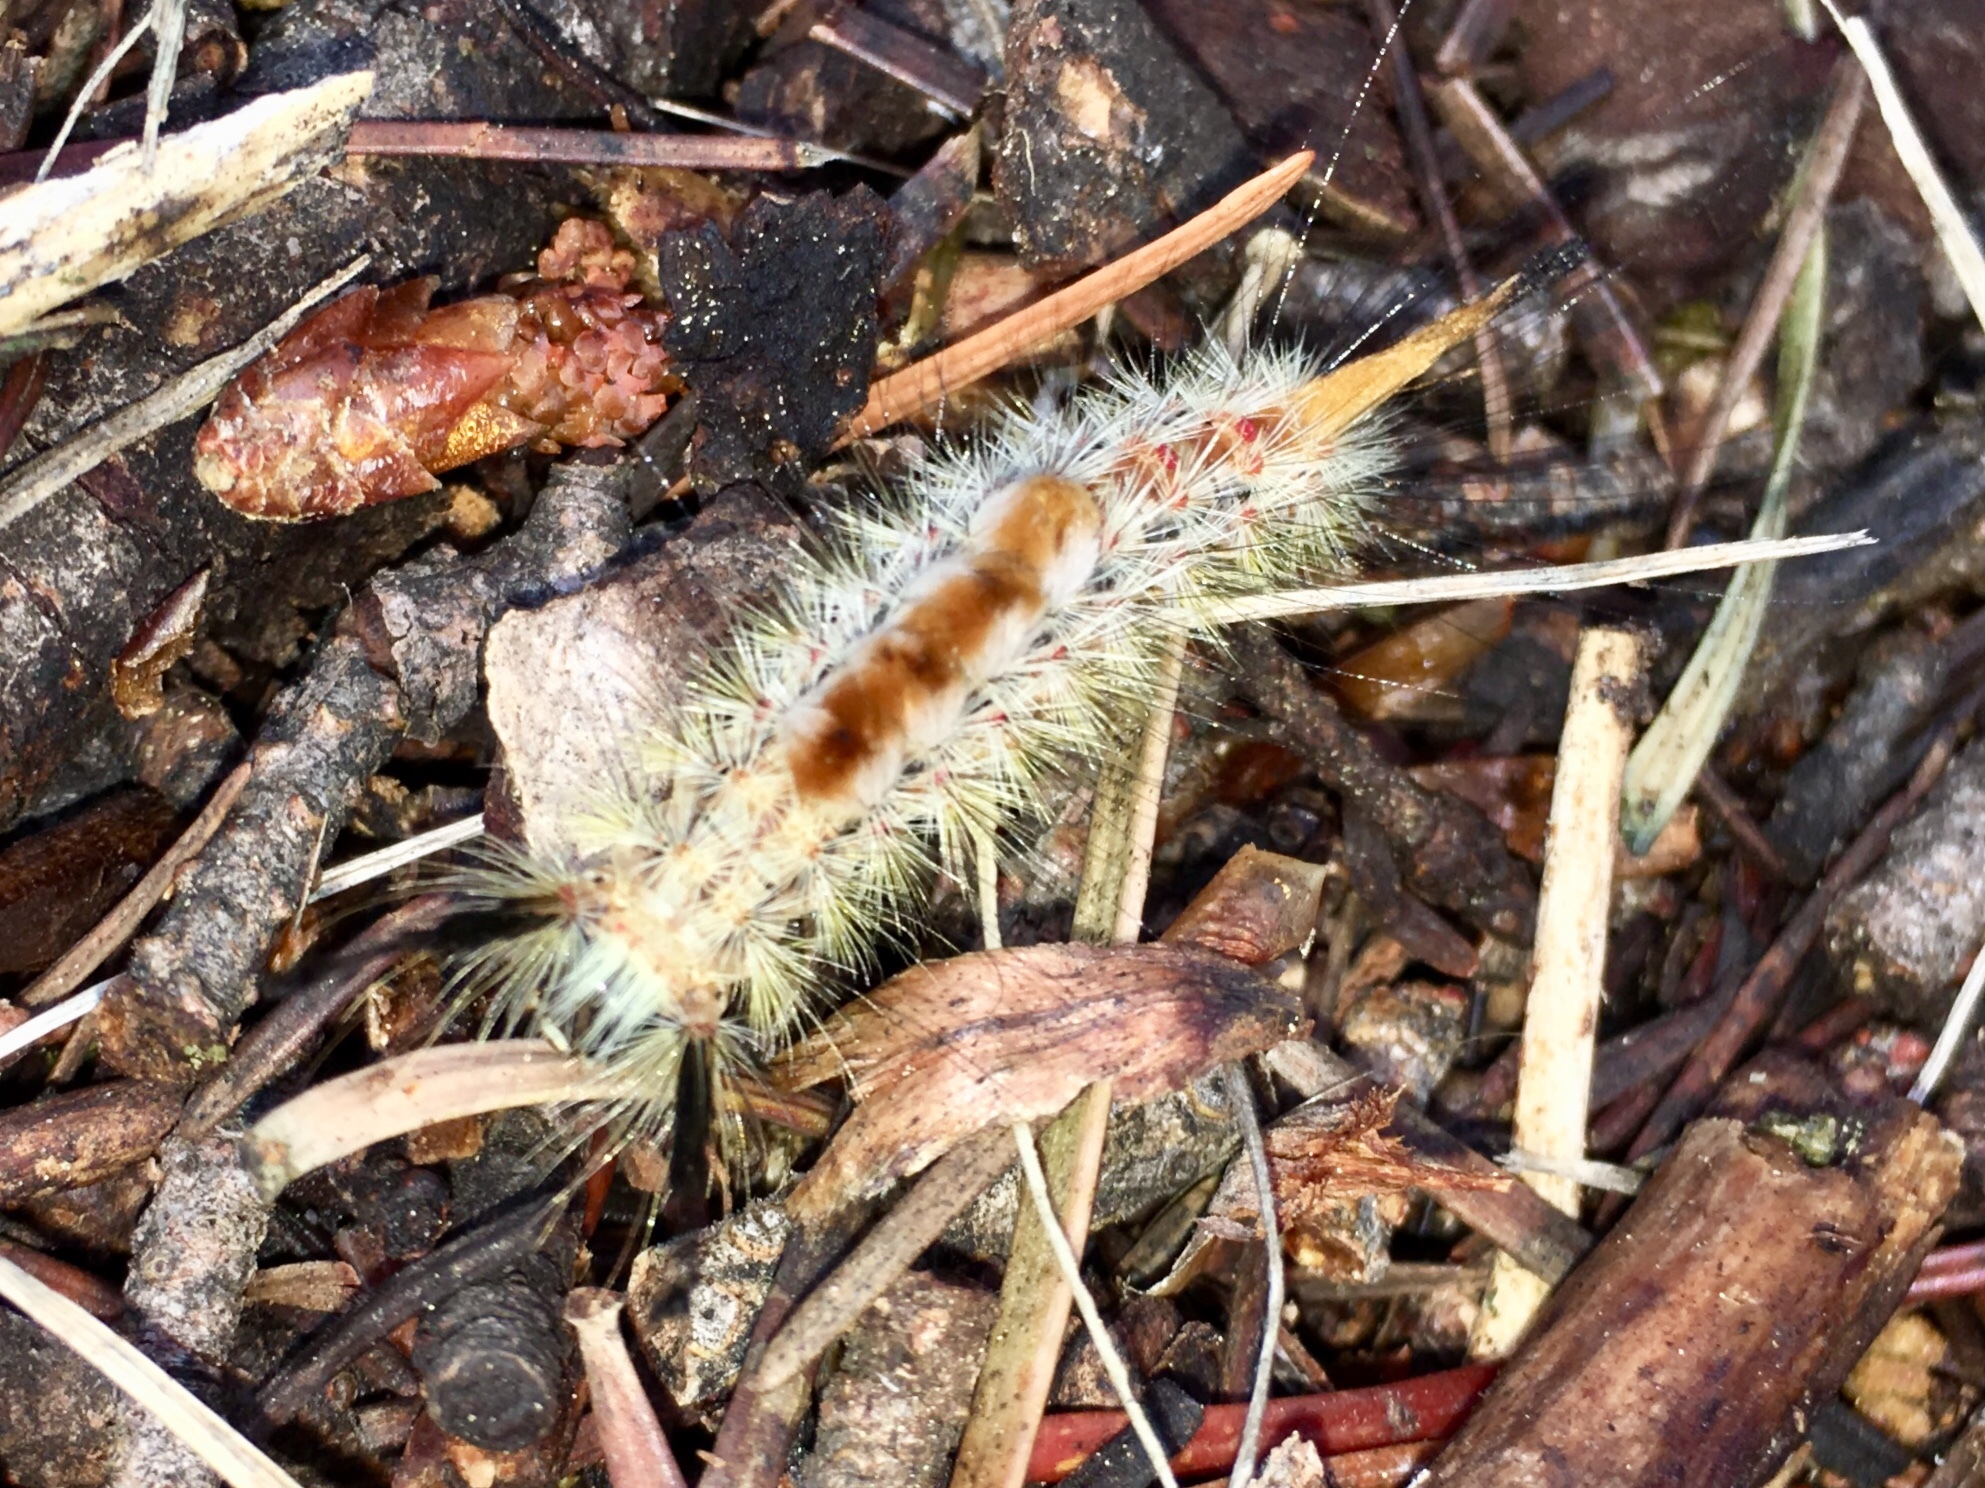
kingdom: Animalia
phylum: Arthropoda
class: Insecta
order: Lepidoptera
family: Erebidae
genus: Orgyia
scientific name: Orgyia pseudotsugata
